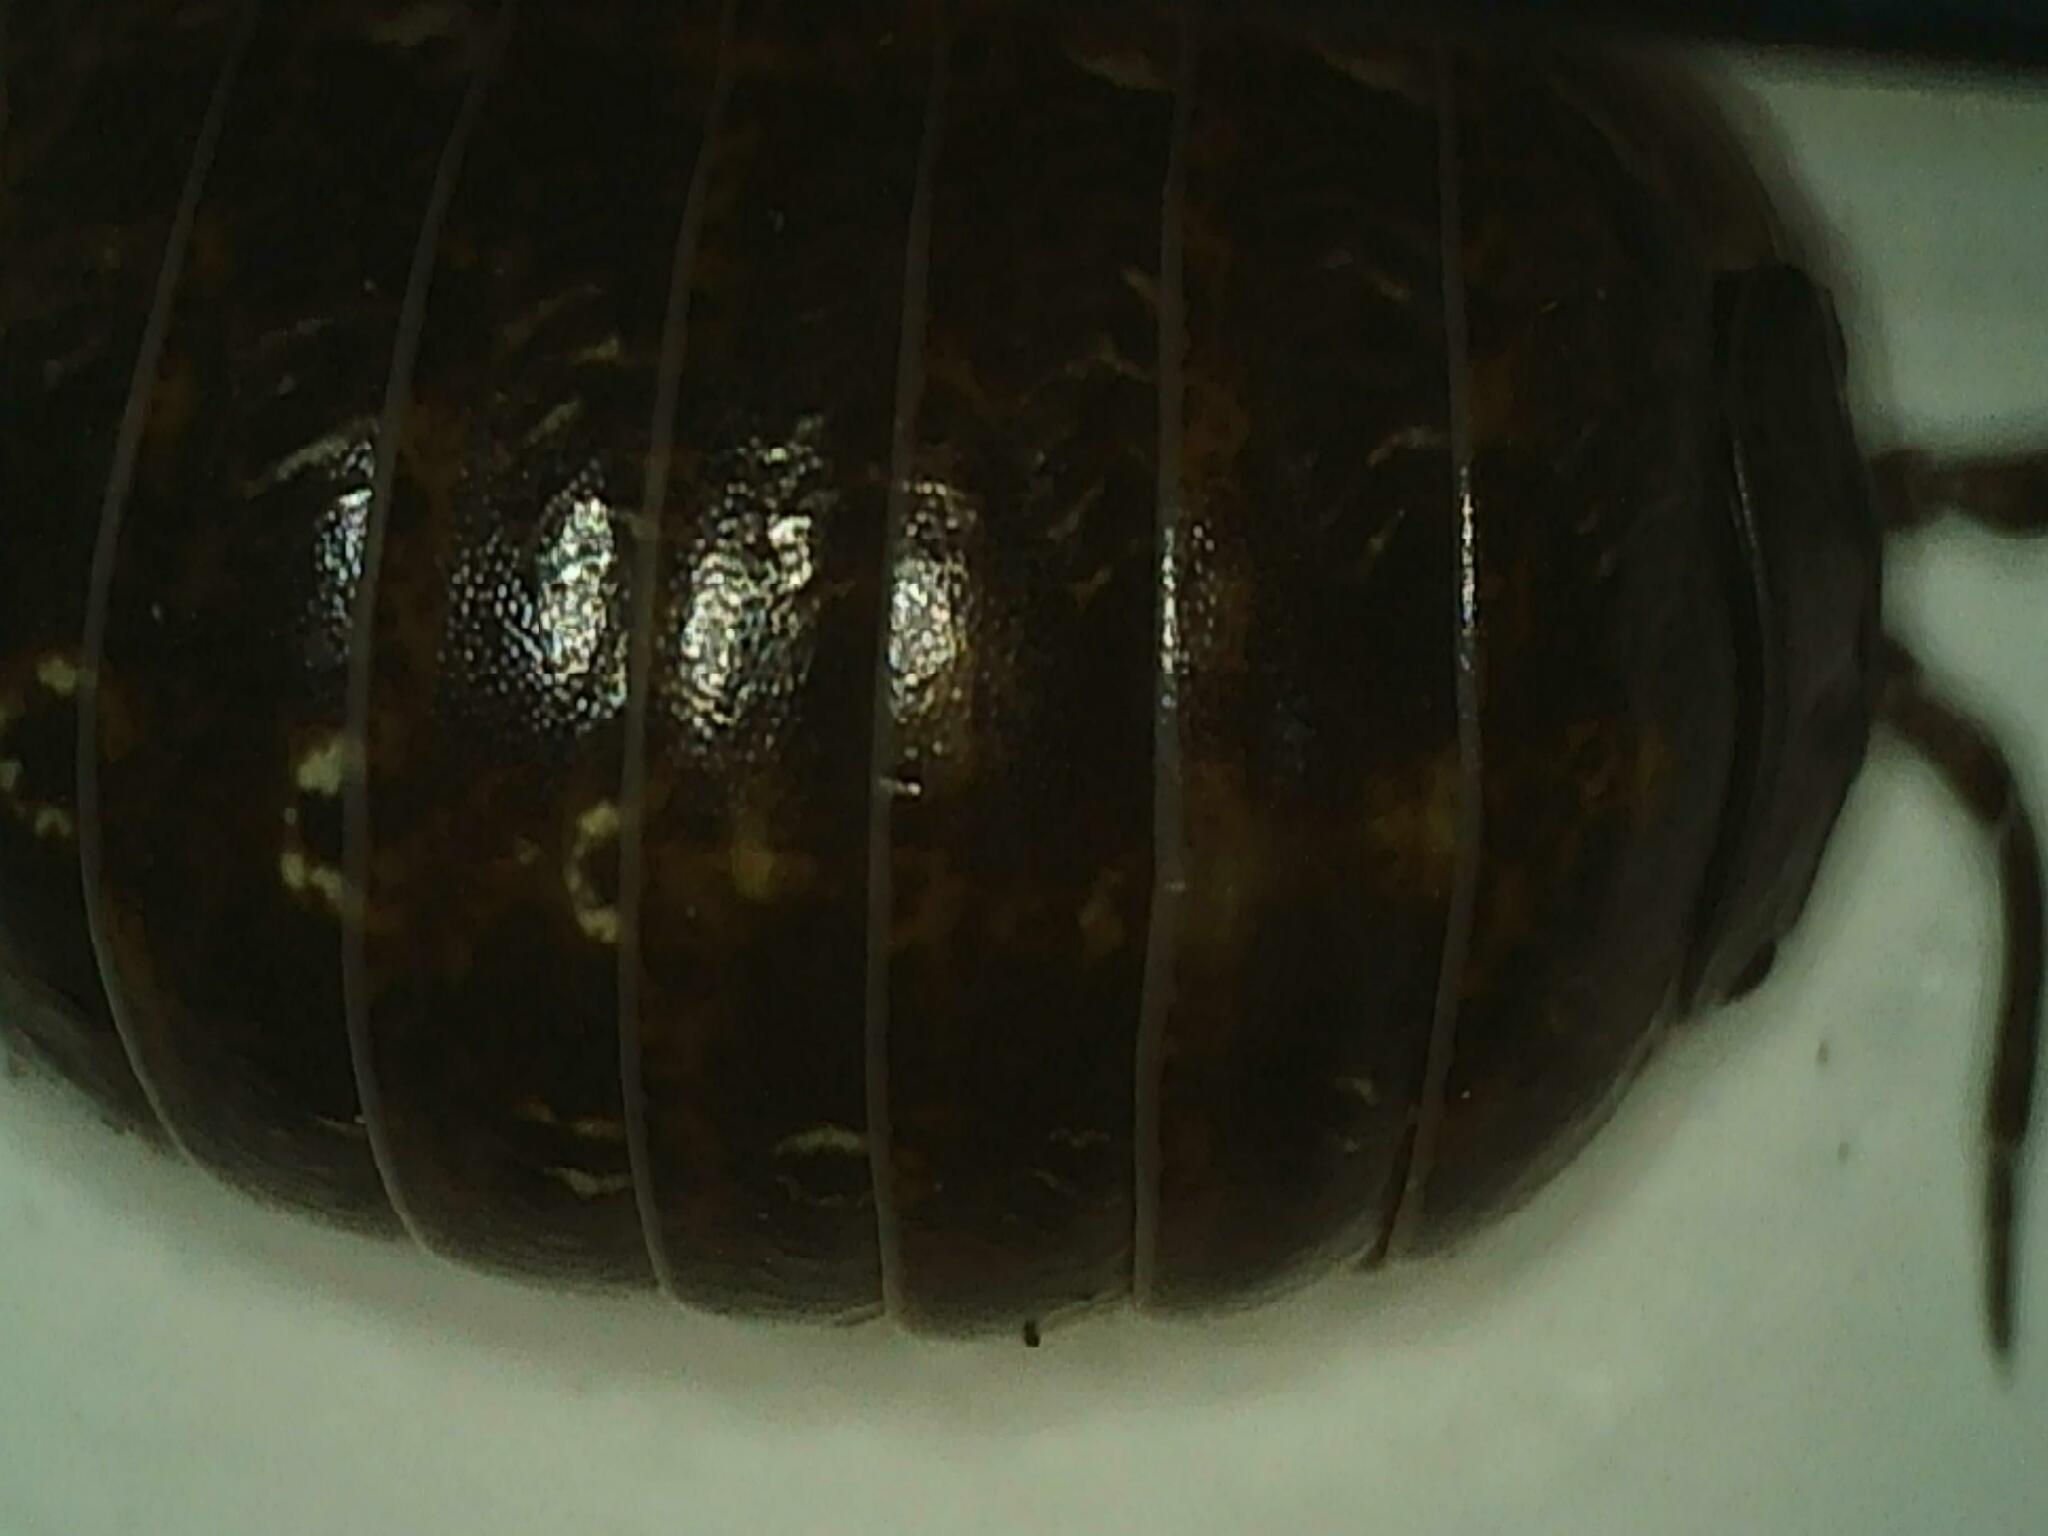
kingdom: Animalia
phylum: Arthropoda
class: Malacostraca
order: Isopoda
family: Armadillidiidae
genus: Armadillidium
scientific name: Armadillidium vulgare
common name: Common pill woodlouse
